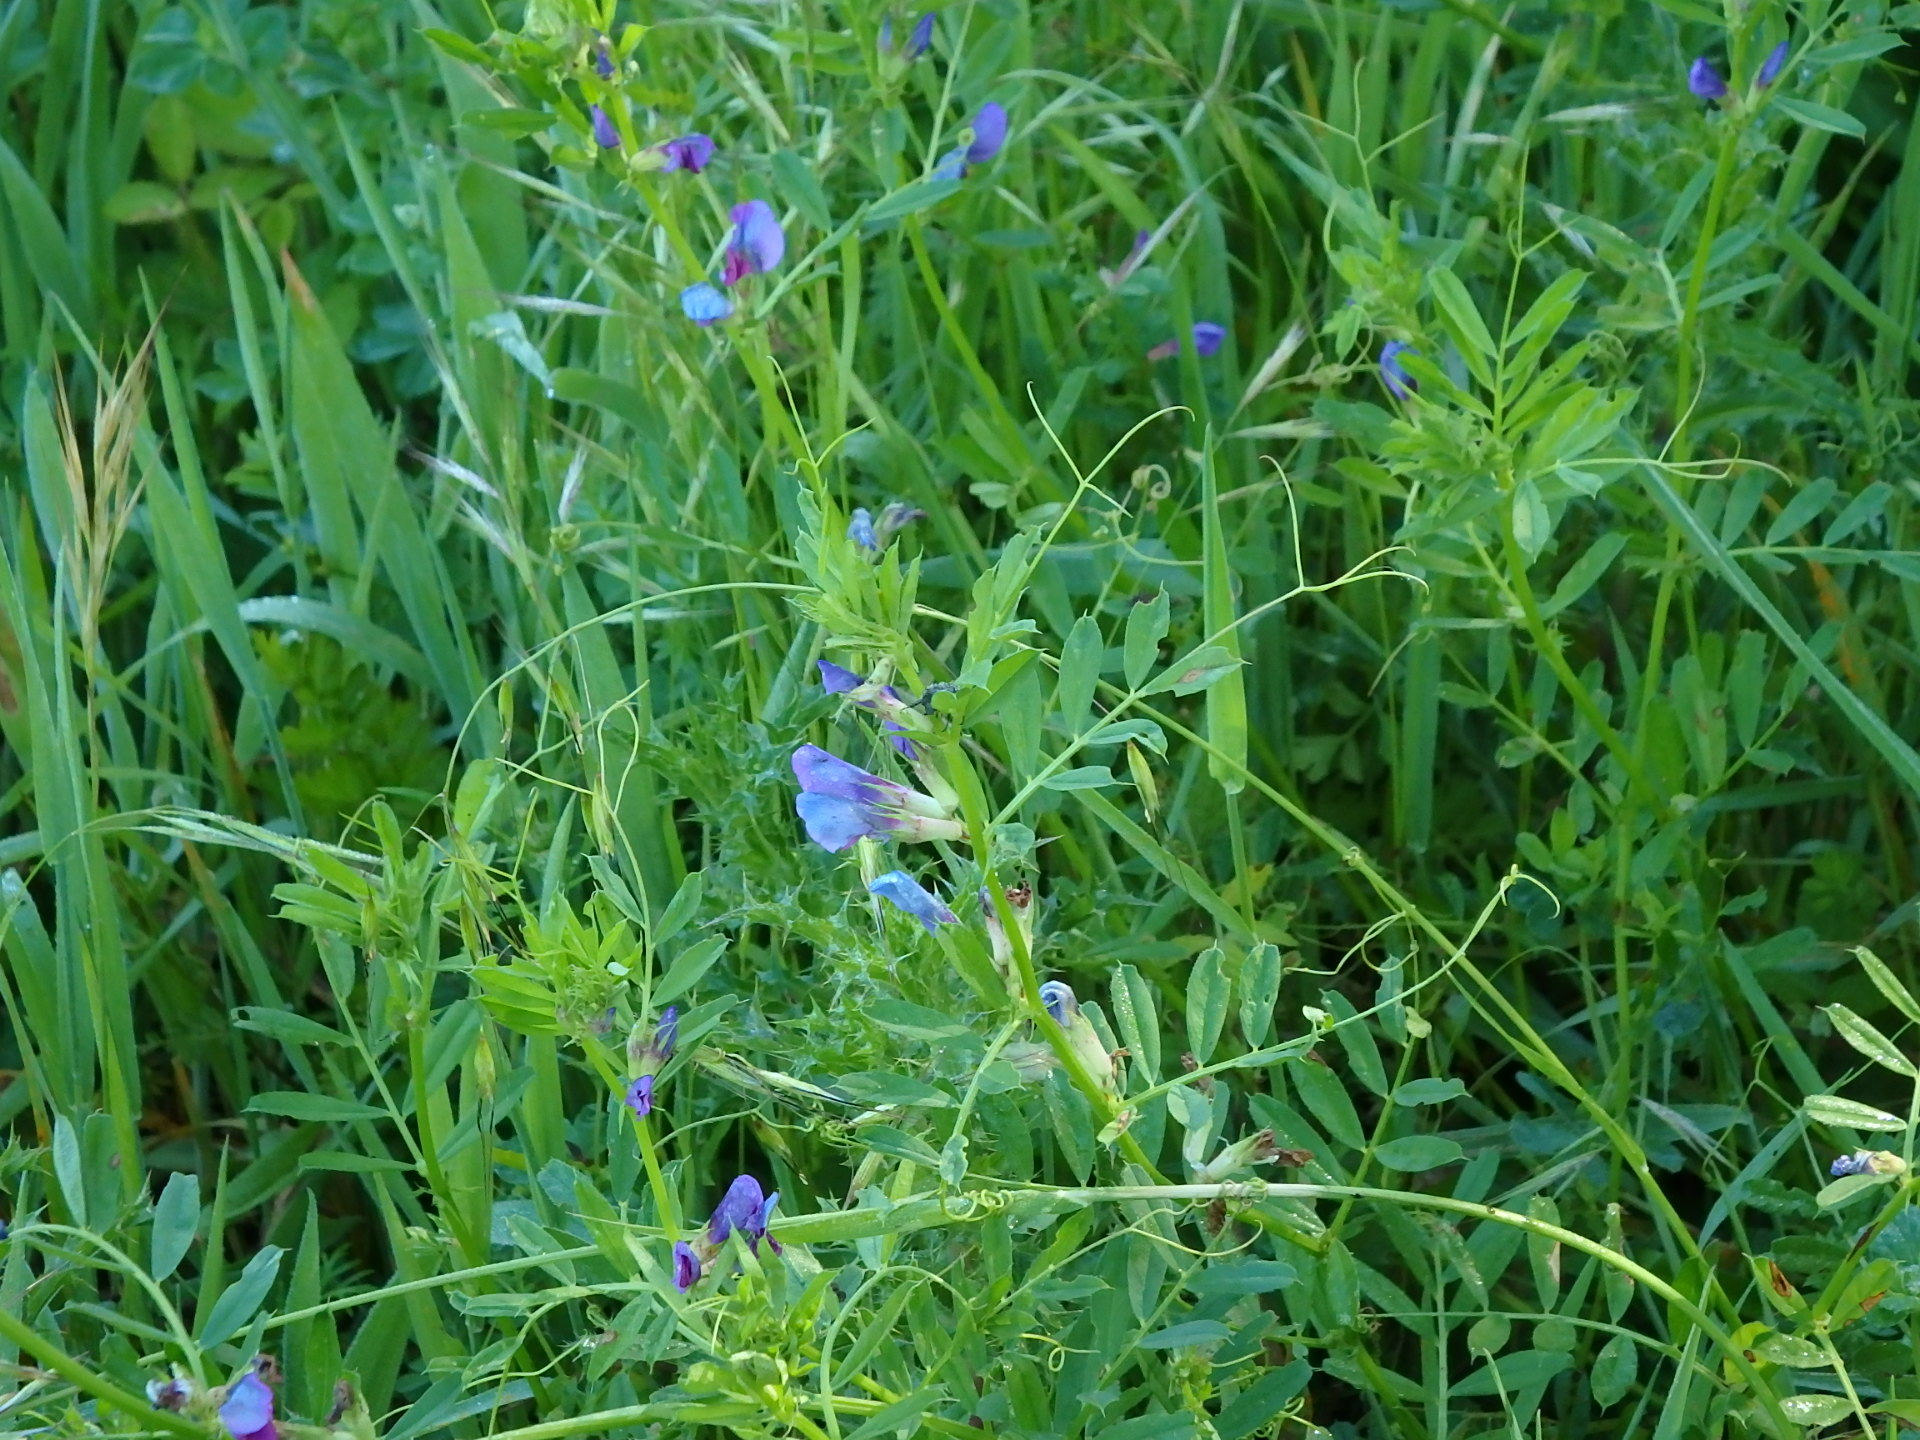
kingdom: Plantae
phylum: Tracheophyta
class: Magnoliopsida
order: Fabales
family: Fabaceae
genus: Vicia
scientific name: Vicia sativa
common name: Garden vetch
